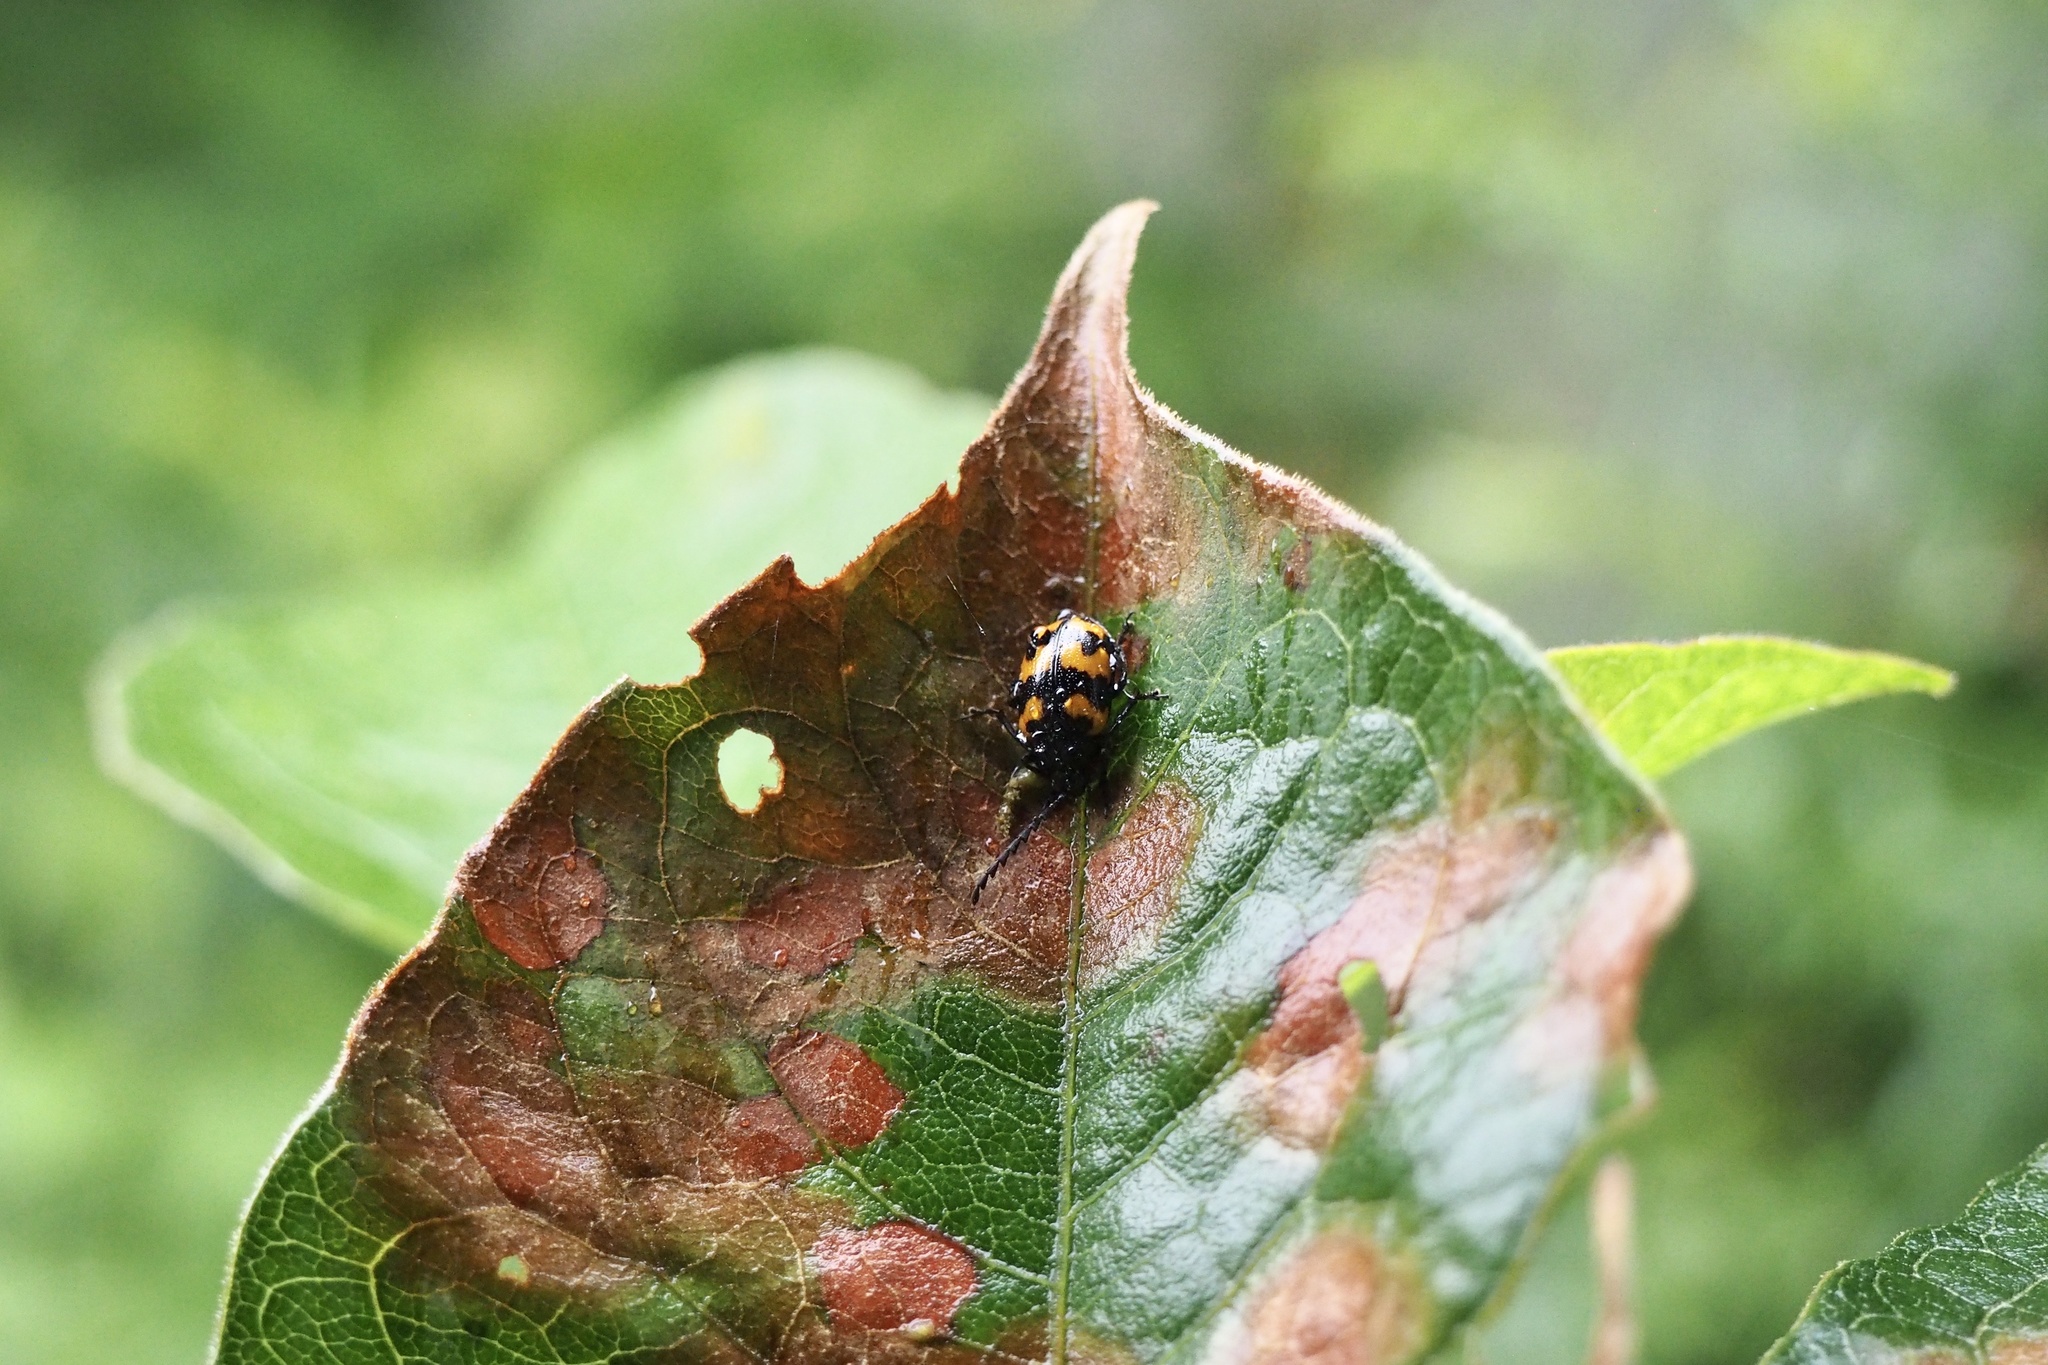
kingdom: Animalia
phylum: Arthropoda
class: Insecta
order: Coleoptera
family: Chrysomelidae
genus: Gallerucida
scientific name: Gallerucida bifasciata
